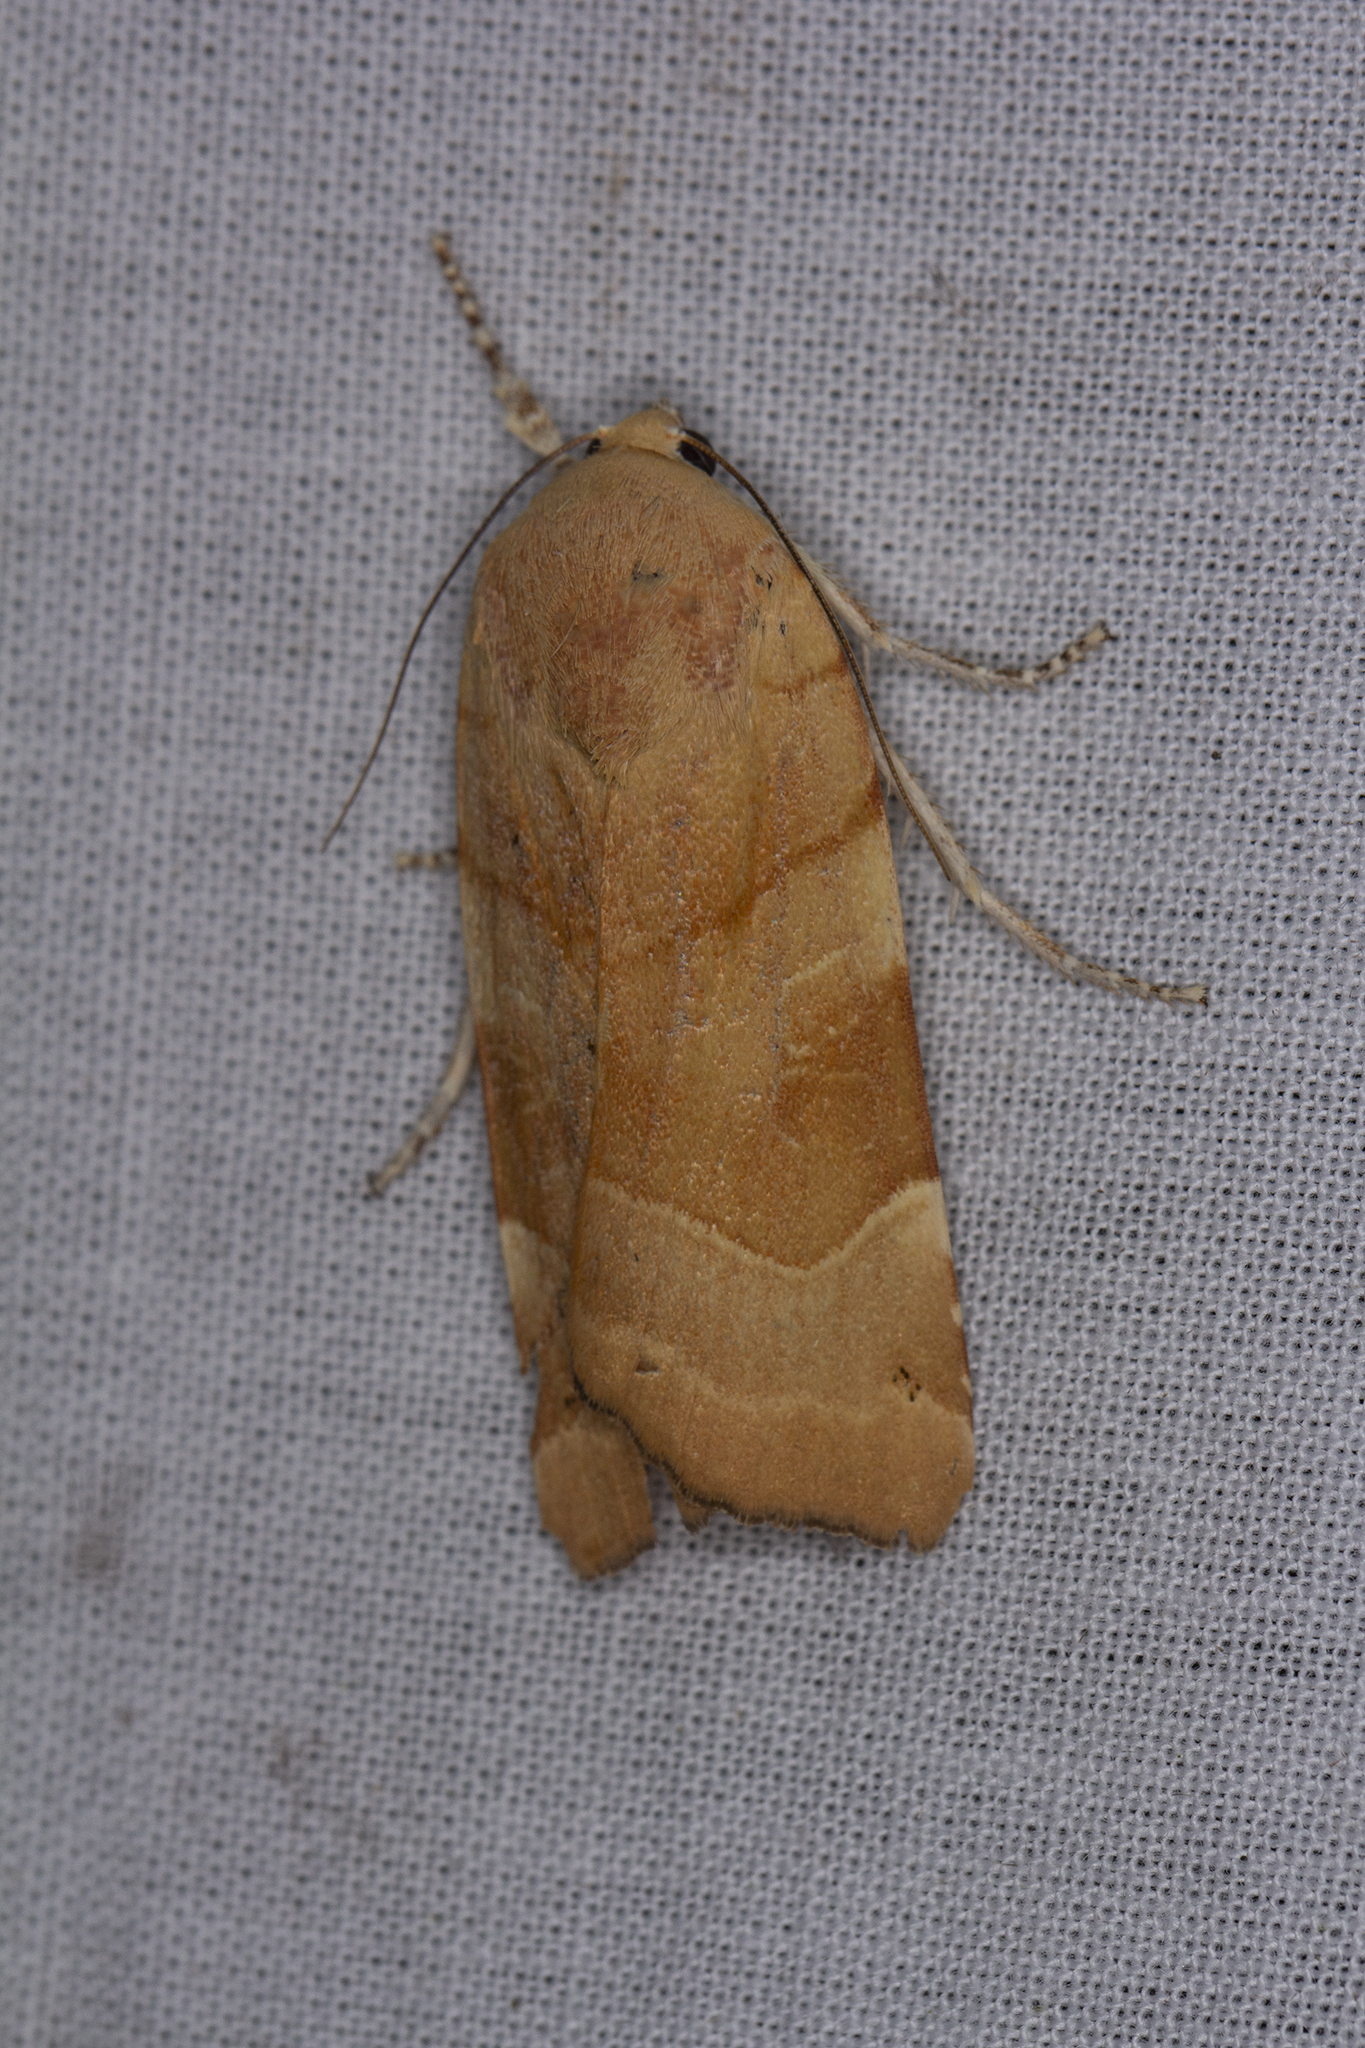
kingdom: Animalia
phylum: Arthropoda
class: Insecta
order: Lepidoptera
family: Noctuidae
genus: Noctua
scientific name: Noctua fimbriata
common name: Broad-bordered yellow underwing
